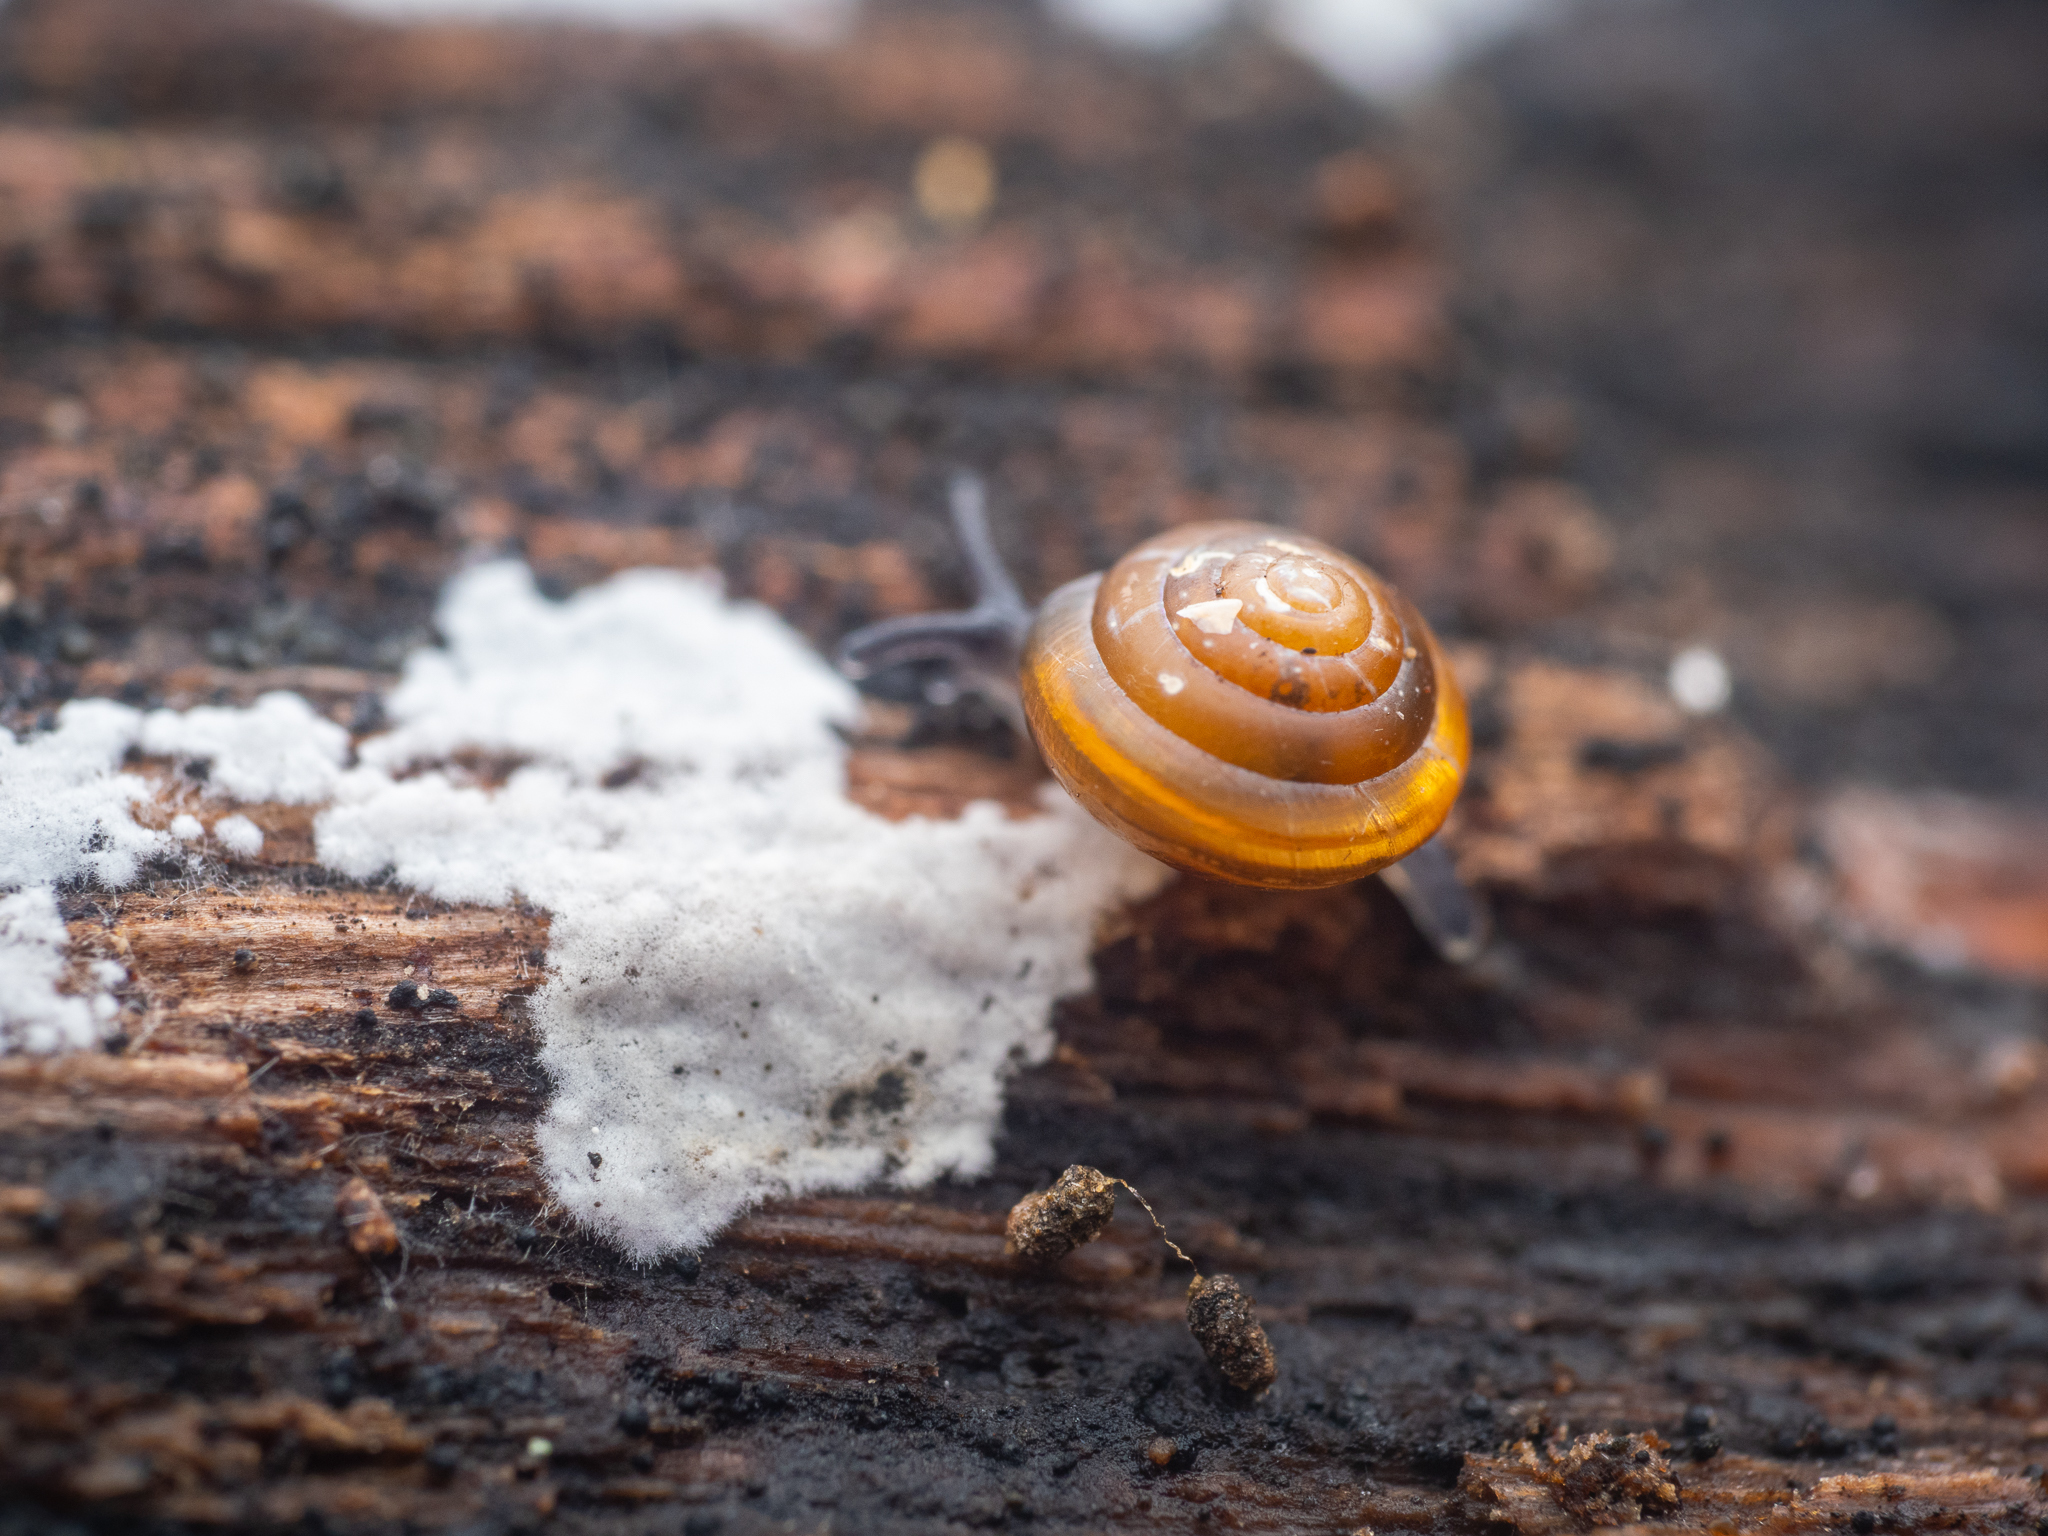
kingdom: Animalia
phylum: Mollusca
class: Gastropoda
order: Stylommatophora
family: Euconulidae
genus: Euconulus
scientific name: Euconulus fulvus
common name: Tawny glass snail
